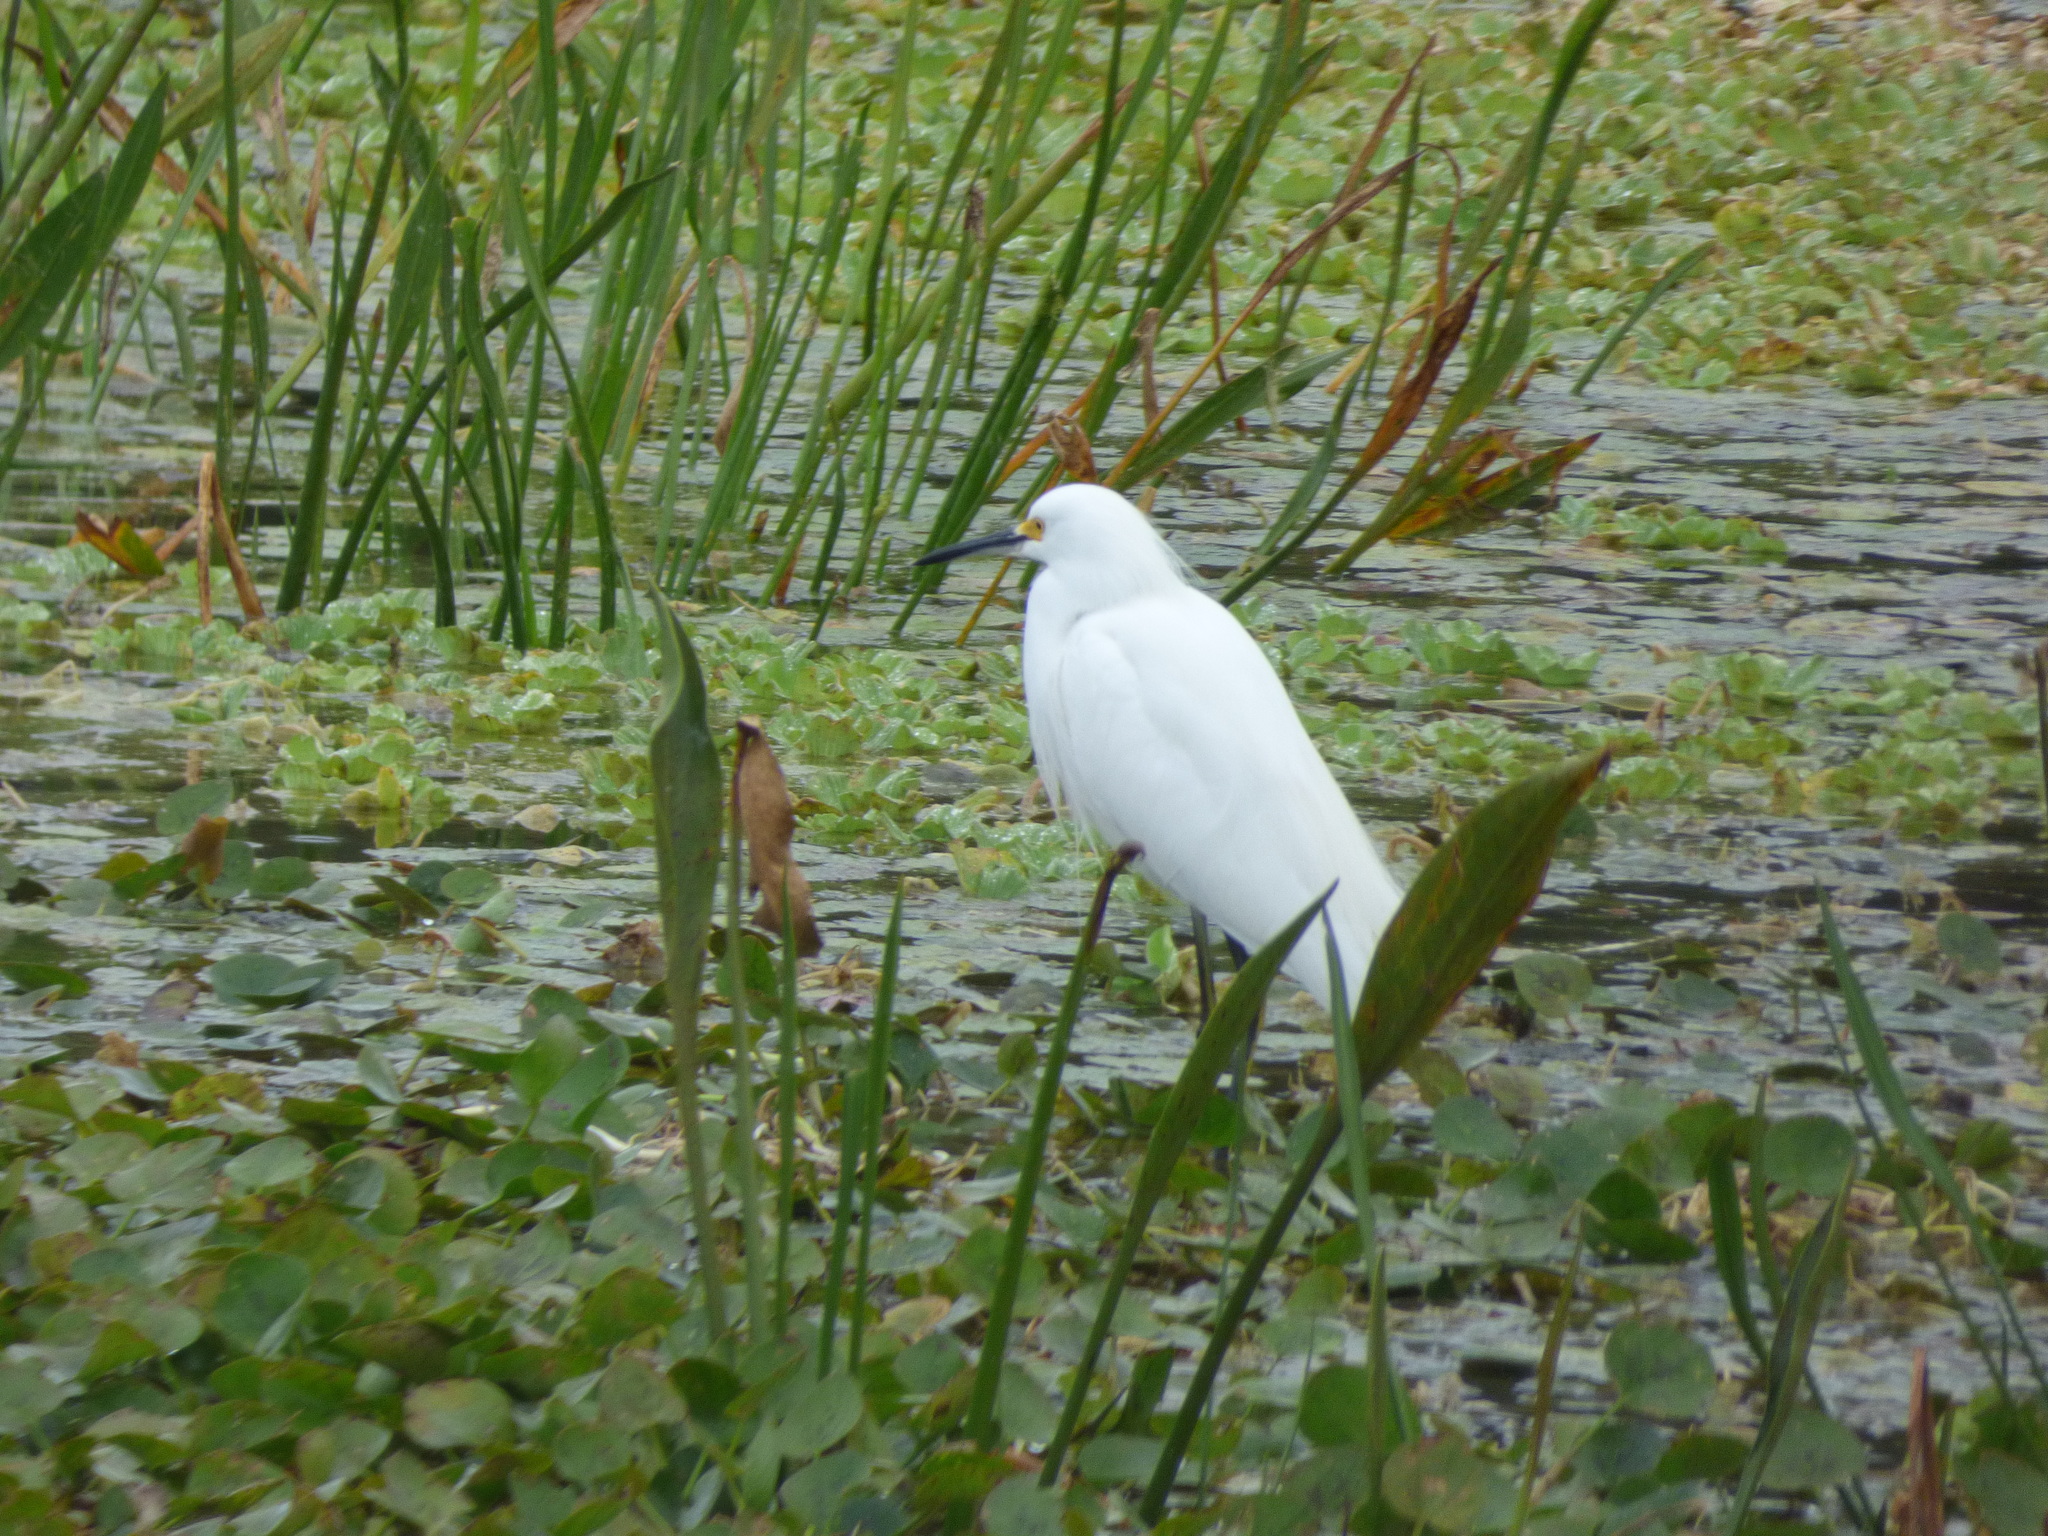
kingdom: Animalia
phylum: Chordata
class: Aves
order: Pelecaniformes
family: Ardeidae
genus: Egretta
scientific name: Egretta thula
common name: Snowy egret
